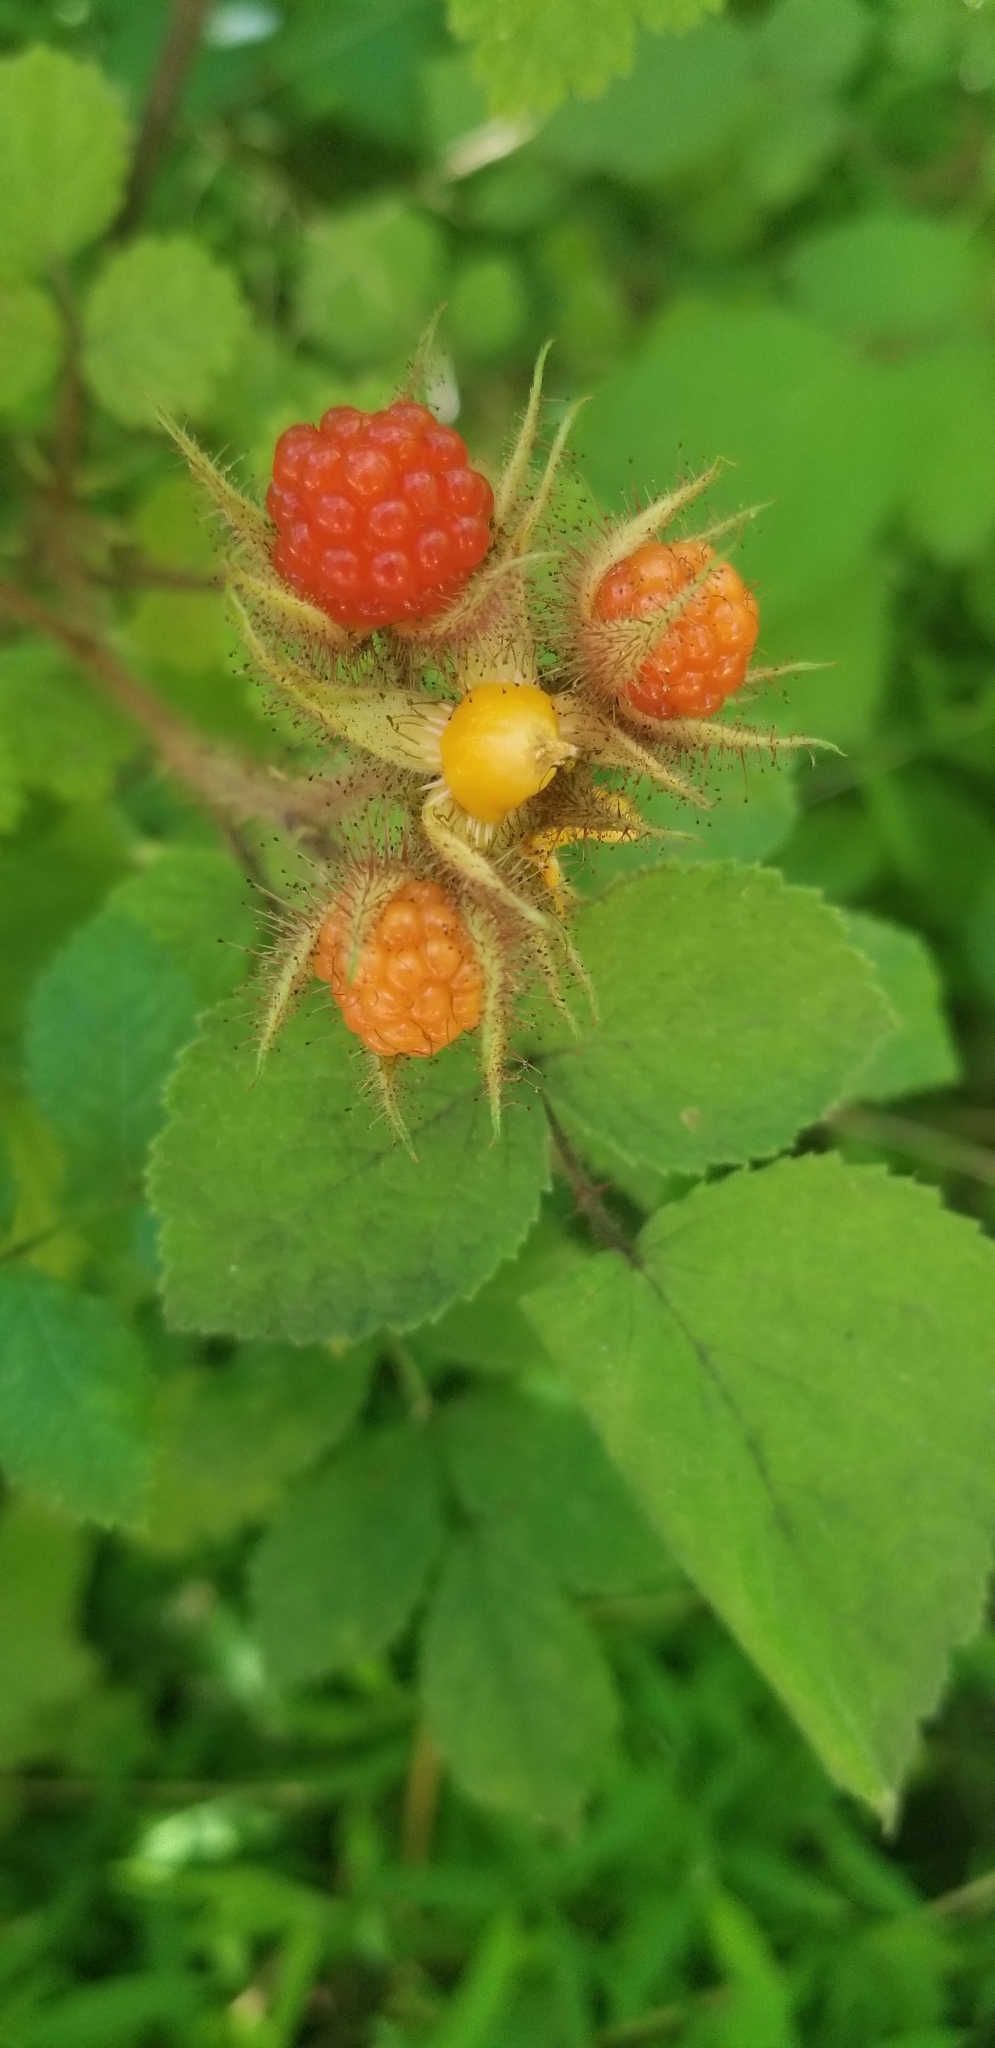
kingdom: Plantae
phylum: Tracheophyta
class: Magnoliopsida
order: Rosales
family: Rosaceae
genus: Rubus
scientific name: Rubus phoenicolasius
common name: Japanese wineberry
